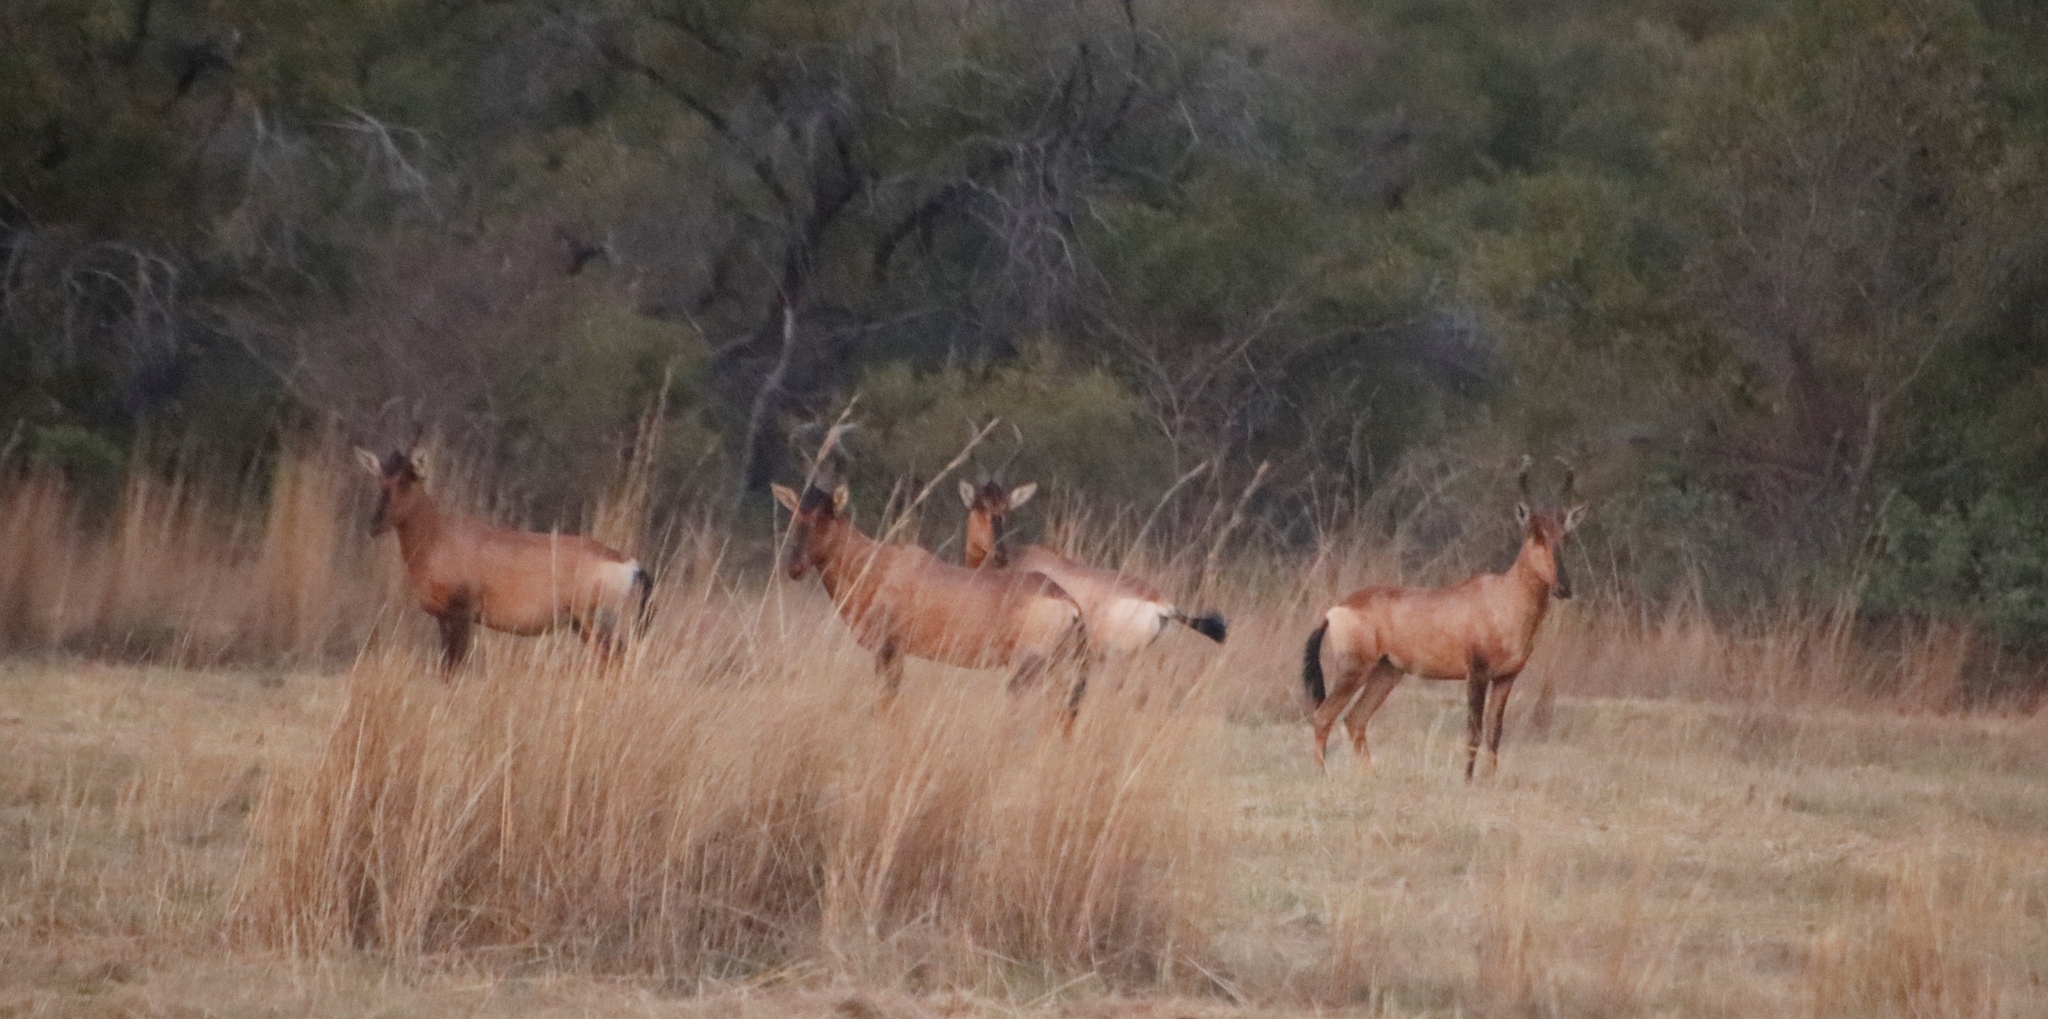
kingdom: Animalia
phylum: Chordata
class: Mammalia
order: Artiodactyla
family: Bovidae
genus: Alcelaphus
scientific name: Alcelaphus caama
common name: Red hartebeest
